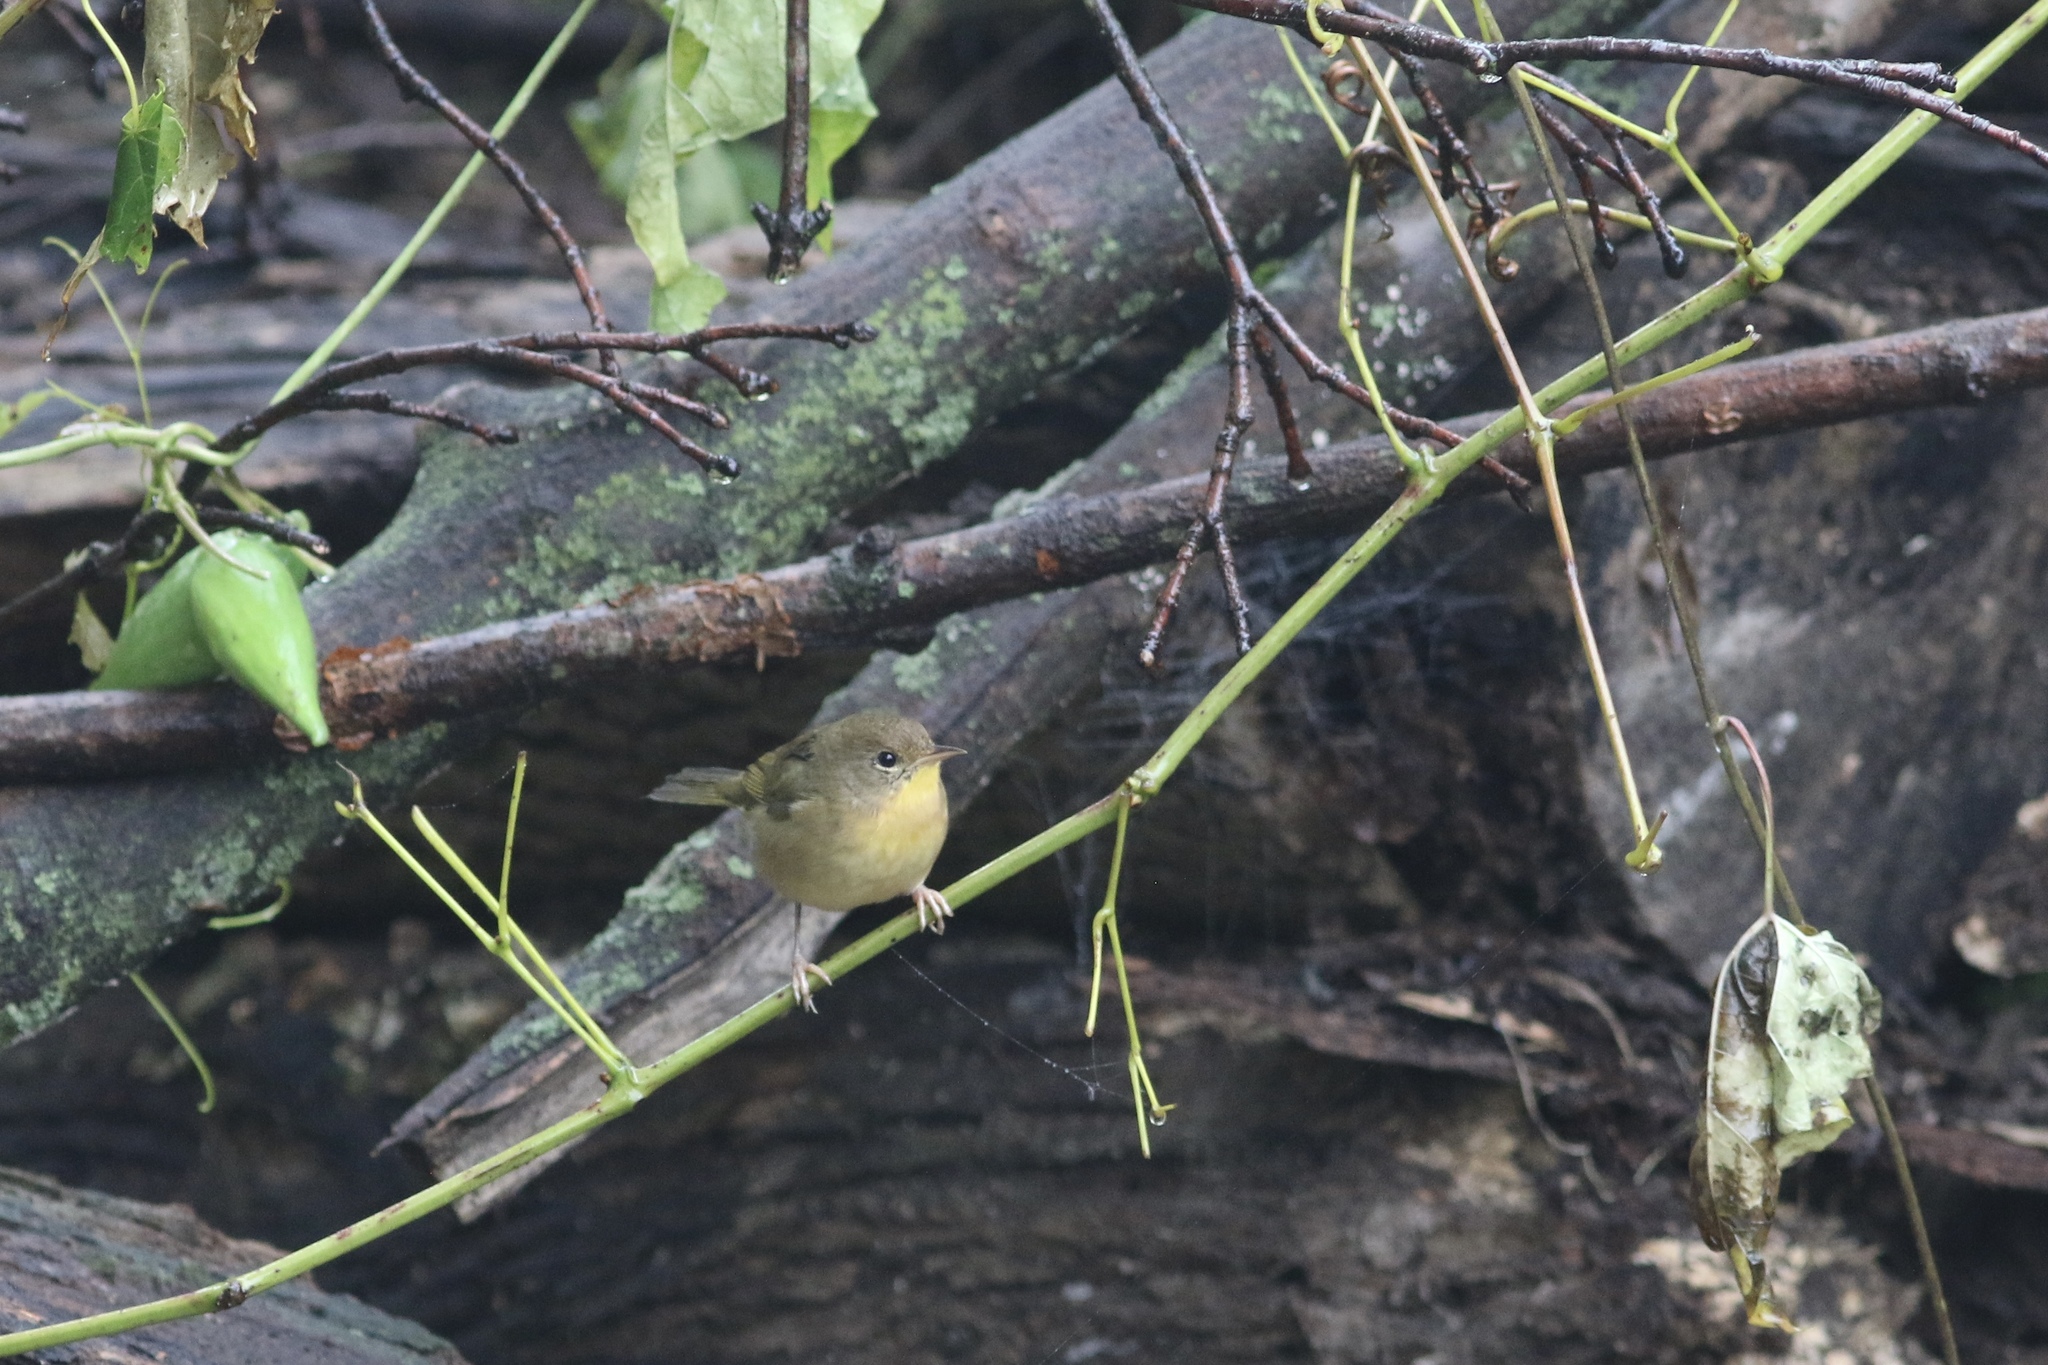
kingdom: Animalia
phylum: Chordata
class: Aves
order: Passeriformes
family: Parulidae
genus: Geothlypis
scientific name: Geothlypis trichas
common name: Common yellowthroat
